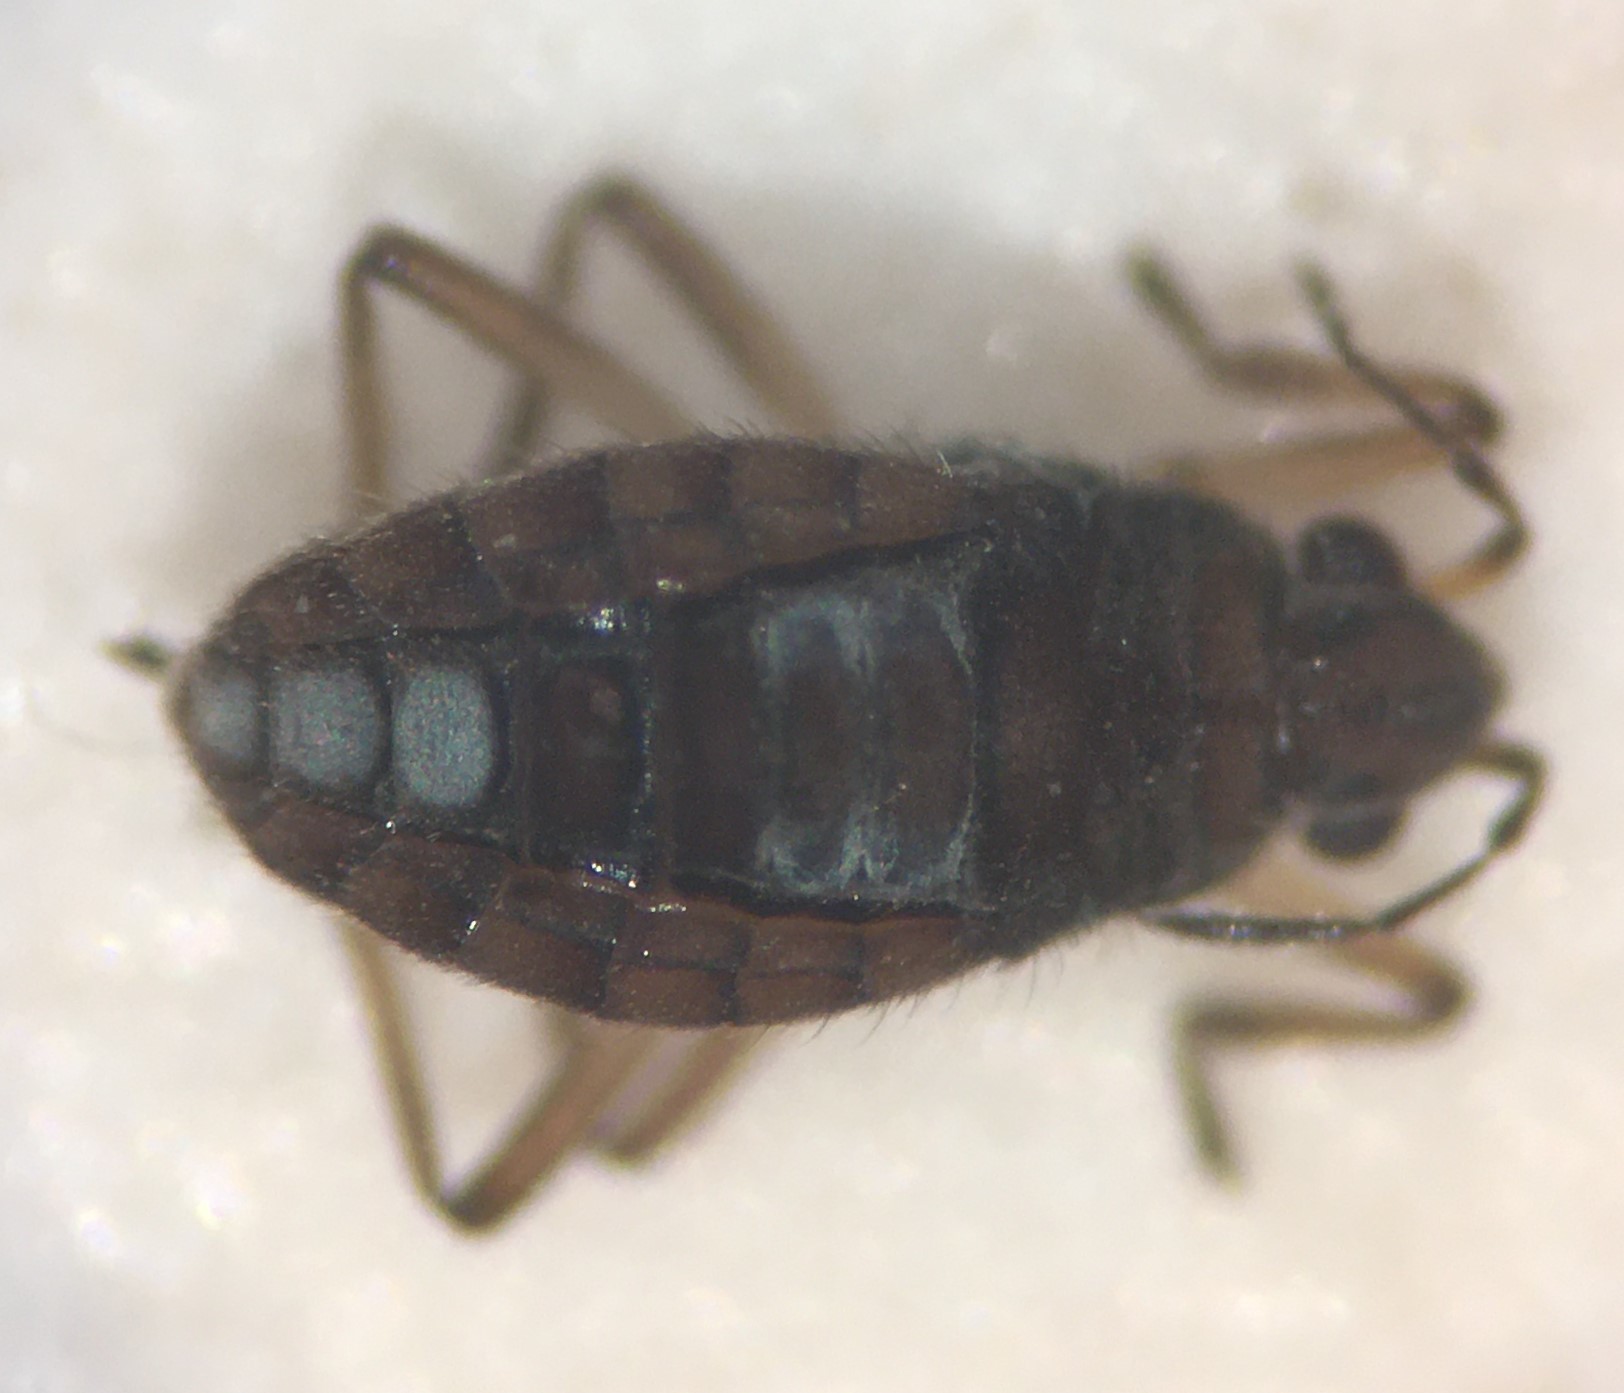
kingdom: Animalia
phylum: Arthropoda
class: Insecta
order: Hemiptera
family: Veliidae
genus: Microvelia
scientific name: Microvelia fontinalis
